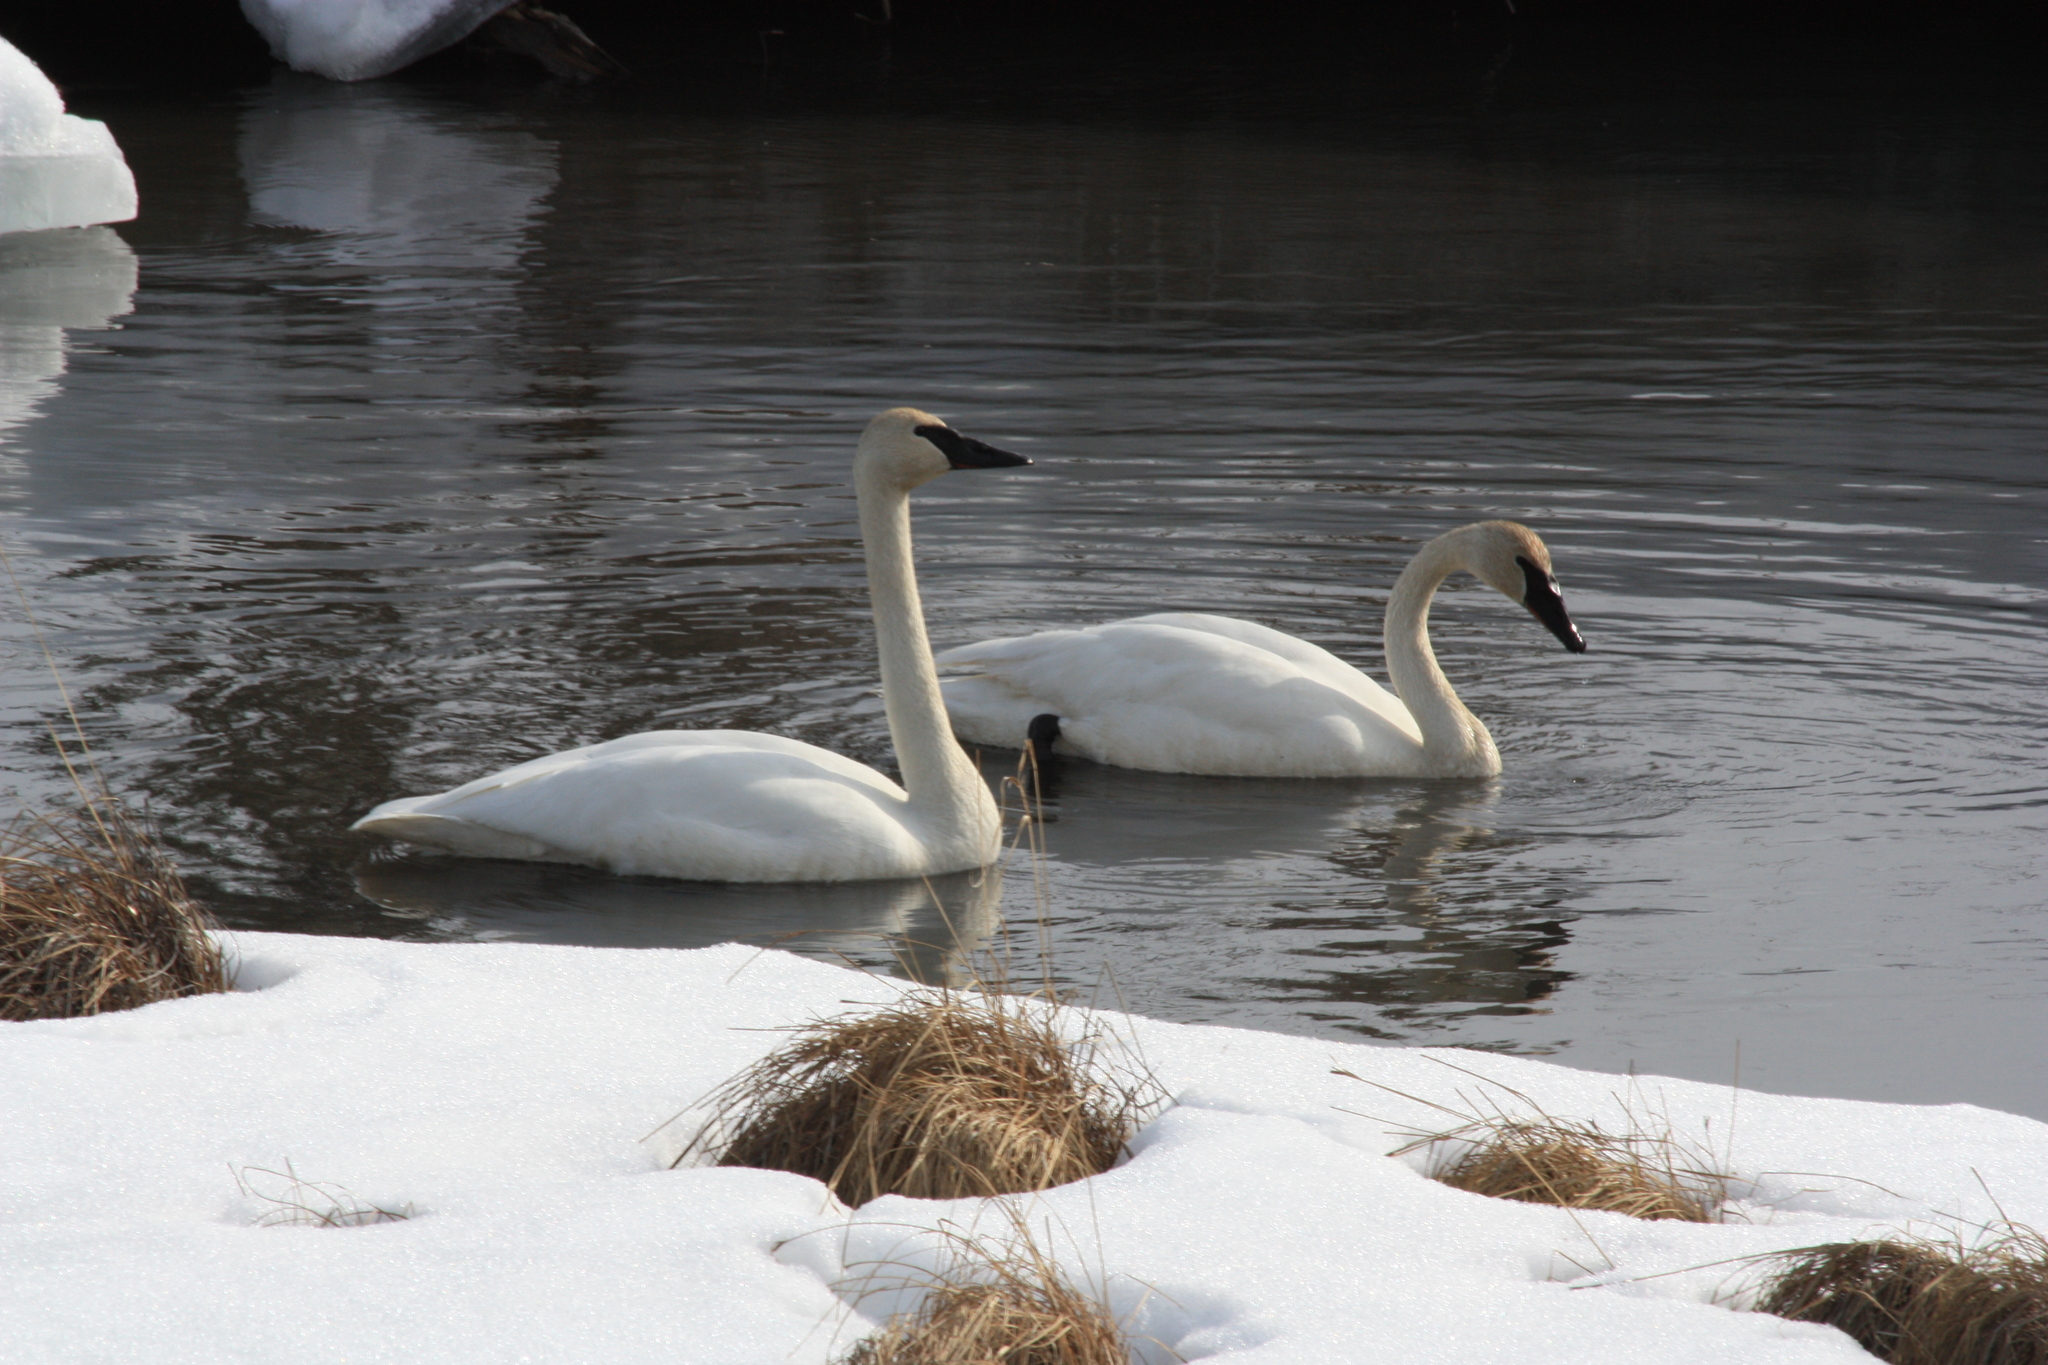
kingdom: Animalia
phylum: Chordata
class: Aves
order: Anseriformes
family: Anatidae
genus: Cygnus
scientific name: Cygnus buccinator
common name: Trumpeter swan
